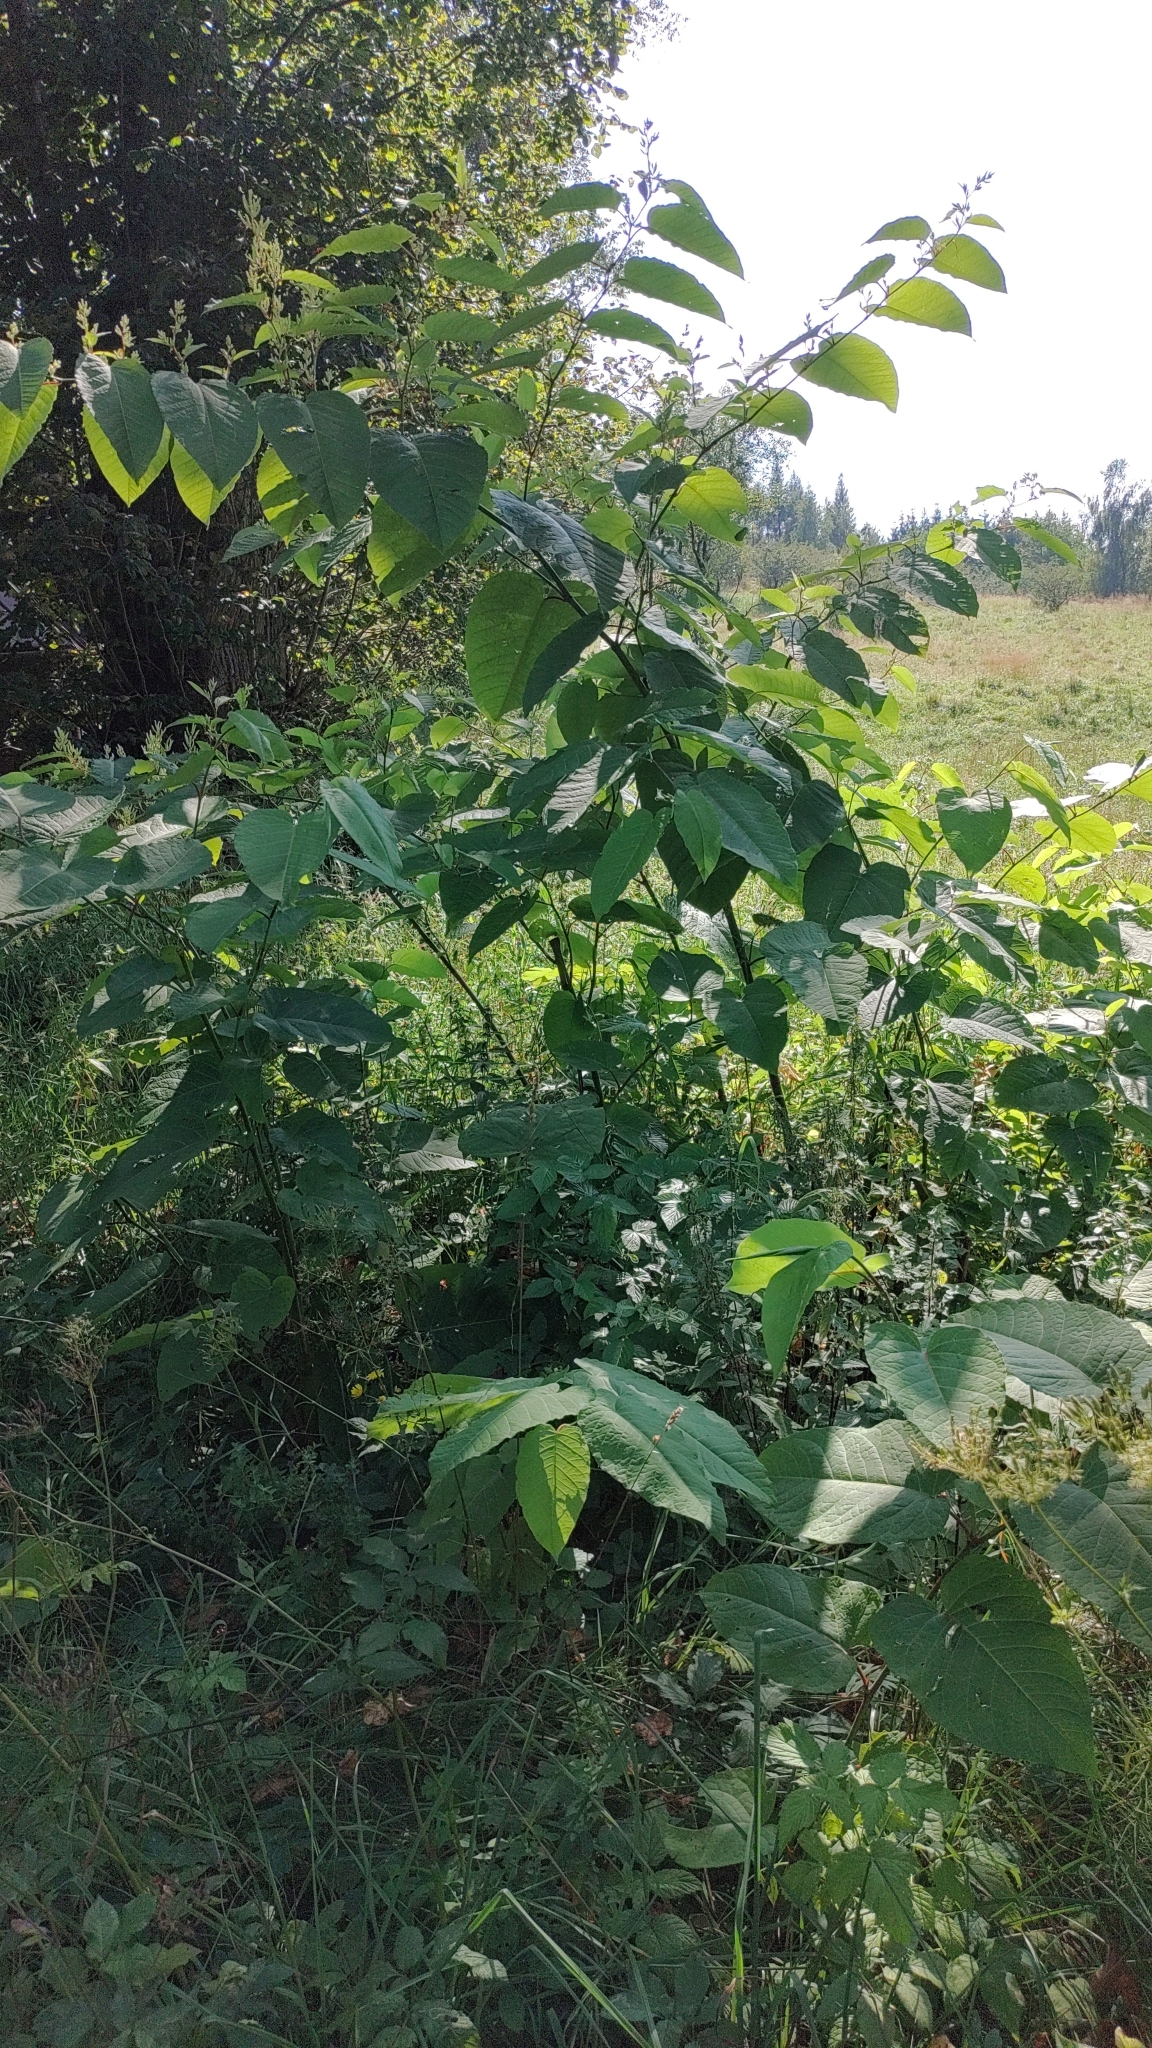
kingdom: Plantae
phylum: Tracheophyta
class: Magnoliopsida
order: Caryophyllales
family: Polygonaceae
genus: Reynoutria
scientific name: Reynoutria sachalinensis
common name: Giant knotweed
